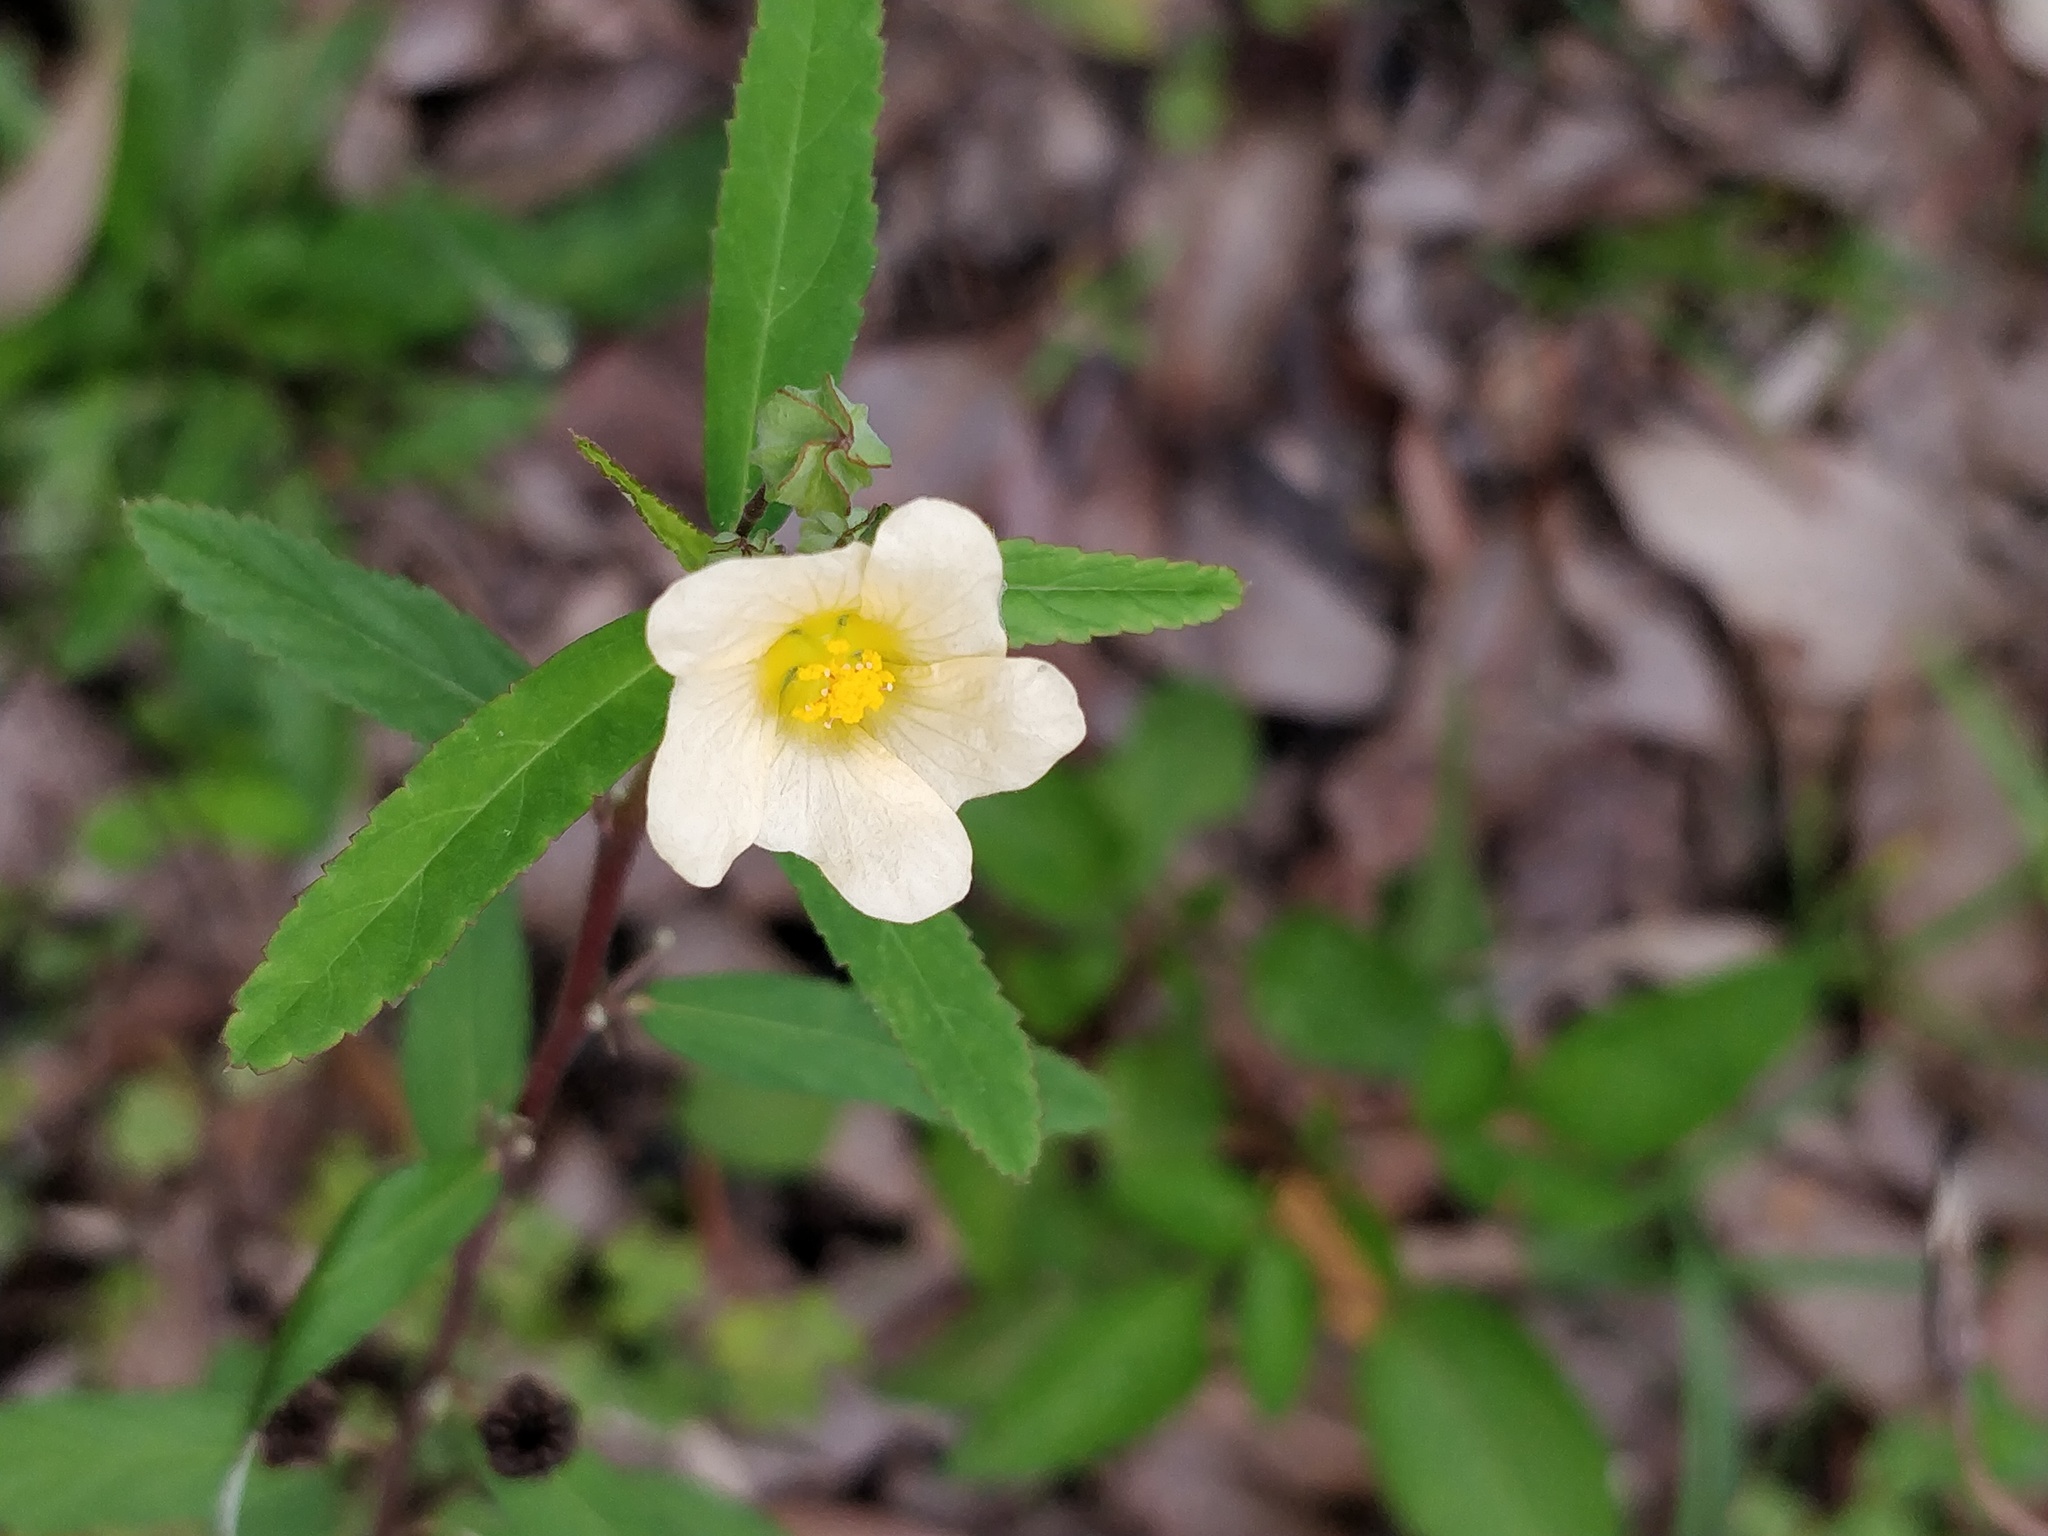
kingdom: Plantae
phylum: Tracheophyta
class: Magnoliopsida
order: Malvales
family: Malvaceae
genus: Sida
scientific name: Sida rhombifolia
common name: Queensland-hemp
